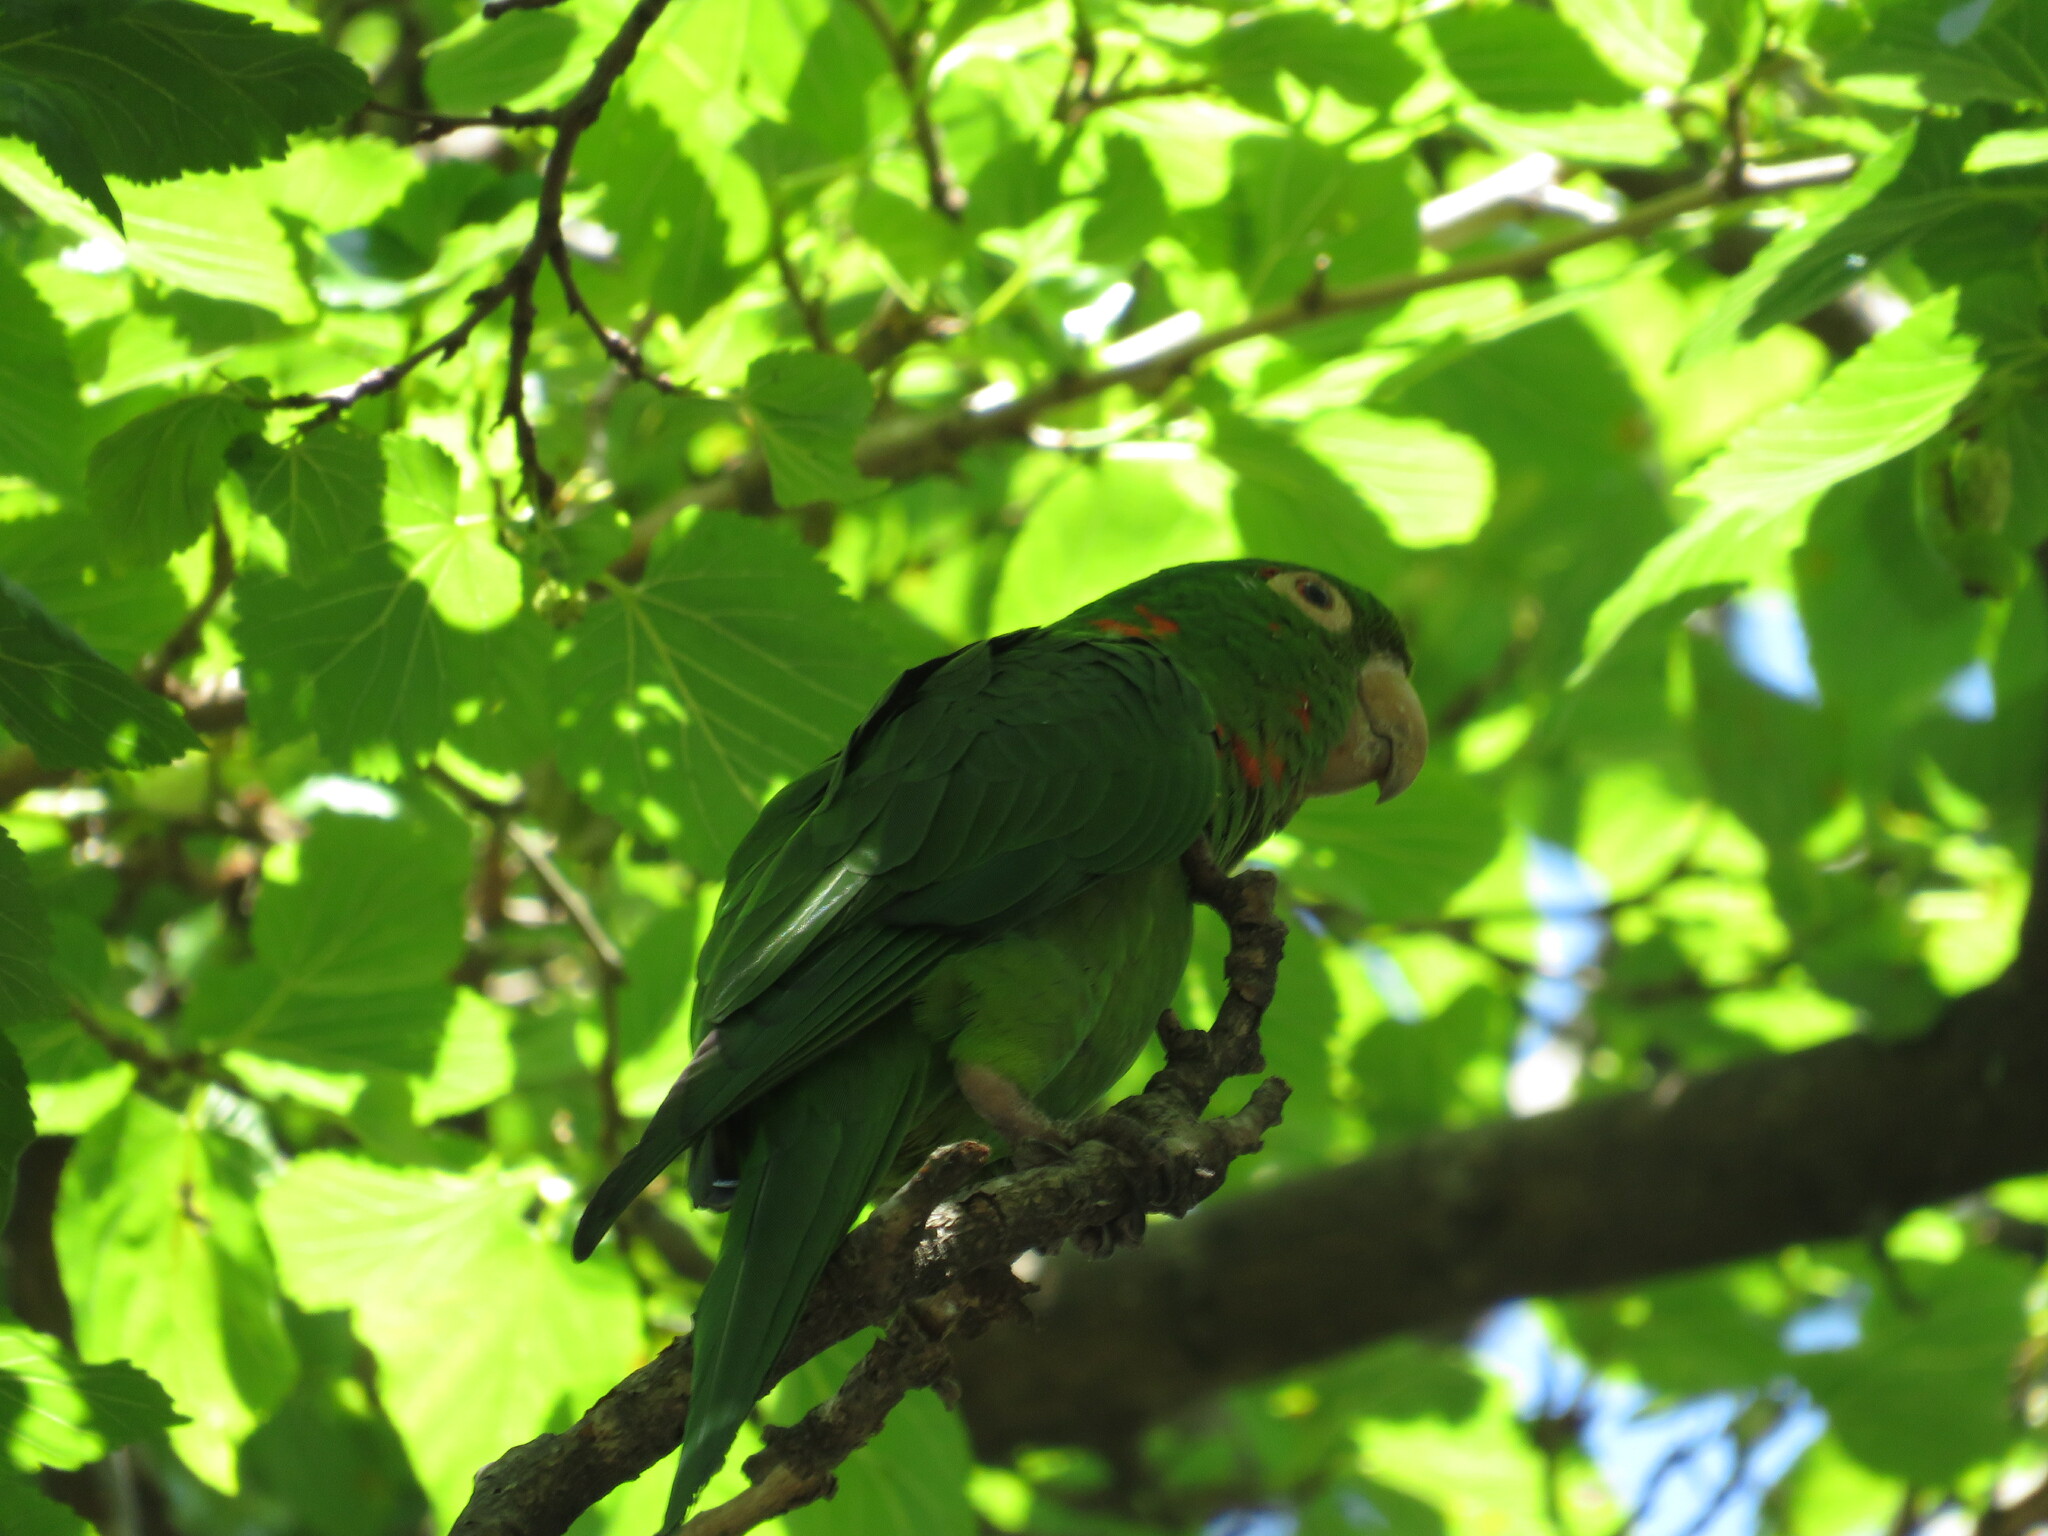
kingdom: Animalia
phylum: Chordata
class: Aves
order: Psittaciformes
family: Psittacidae
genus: Aratinga
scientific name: Aratinga leucophthalma
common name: White-eyed parakeet
